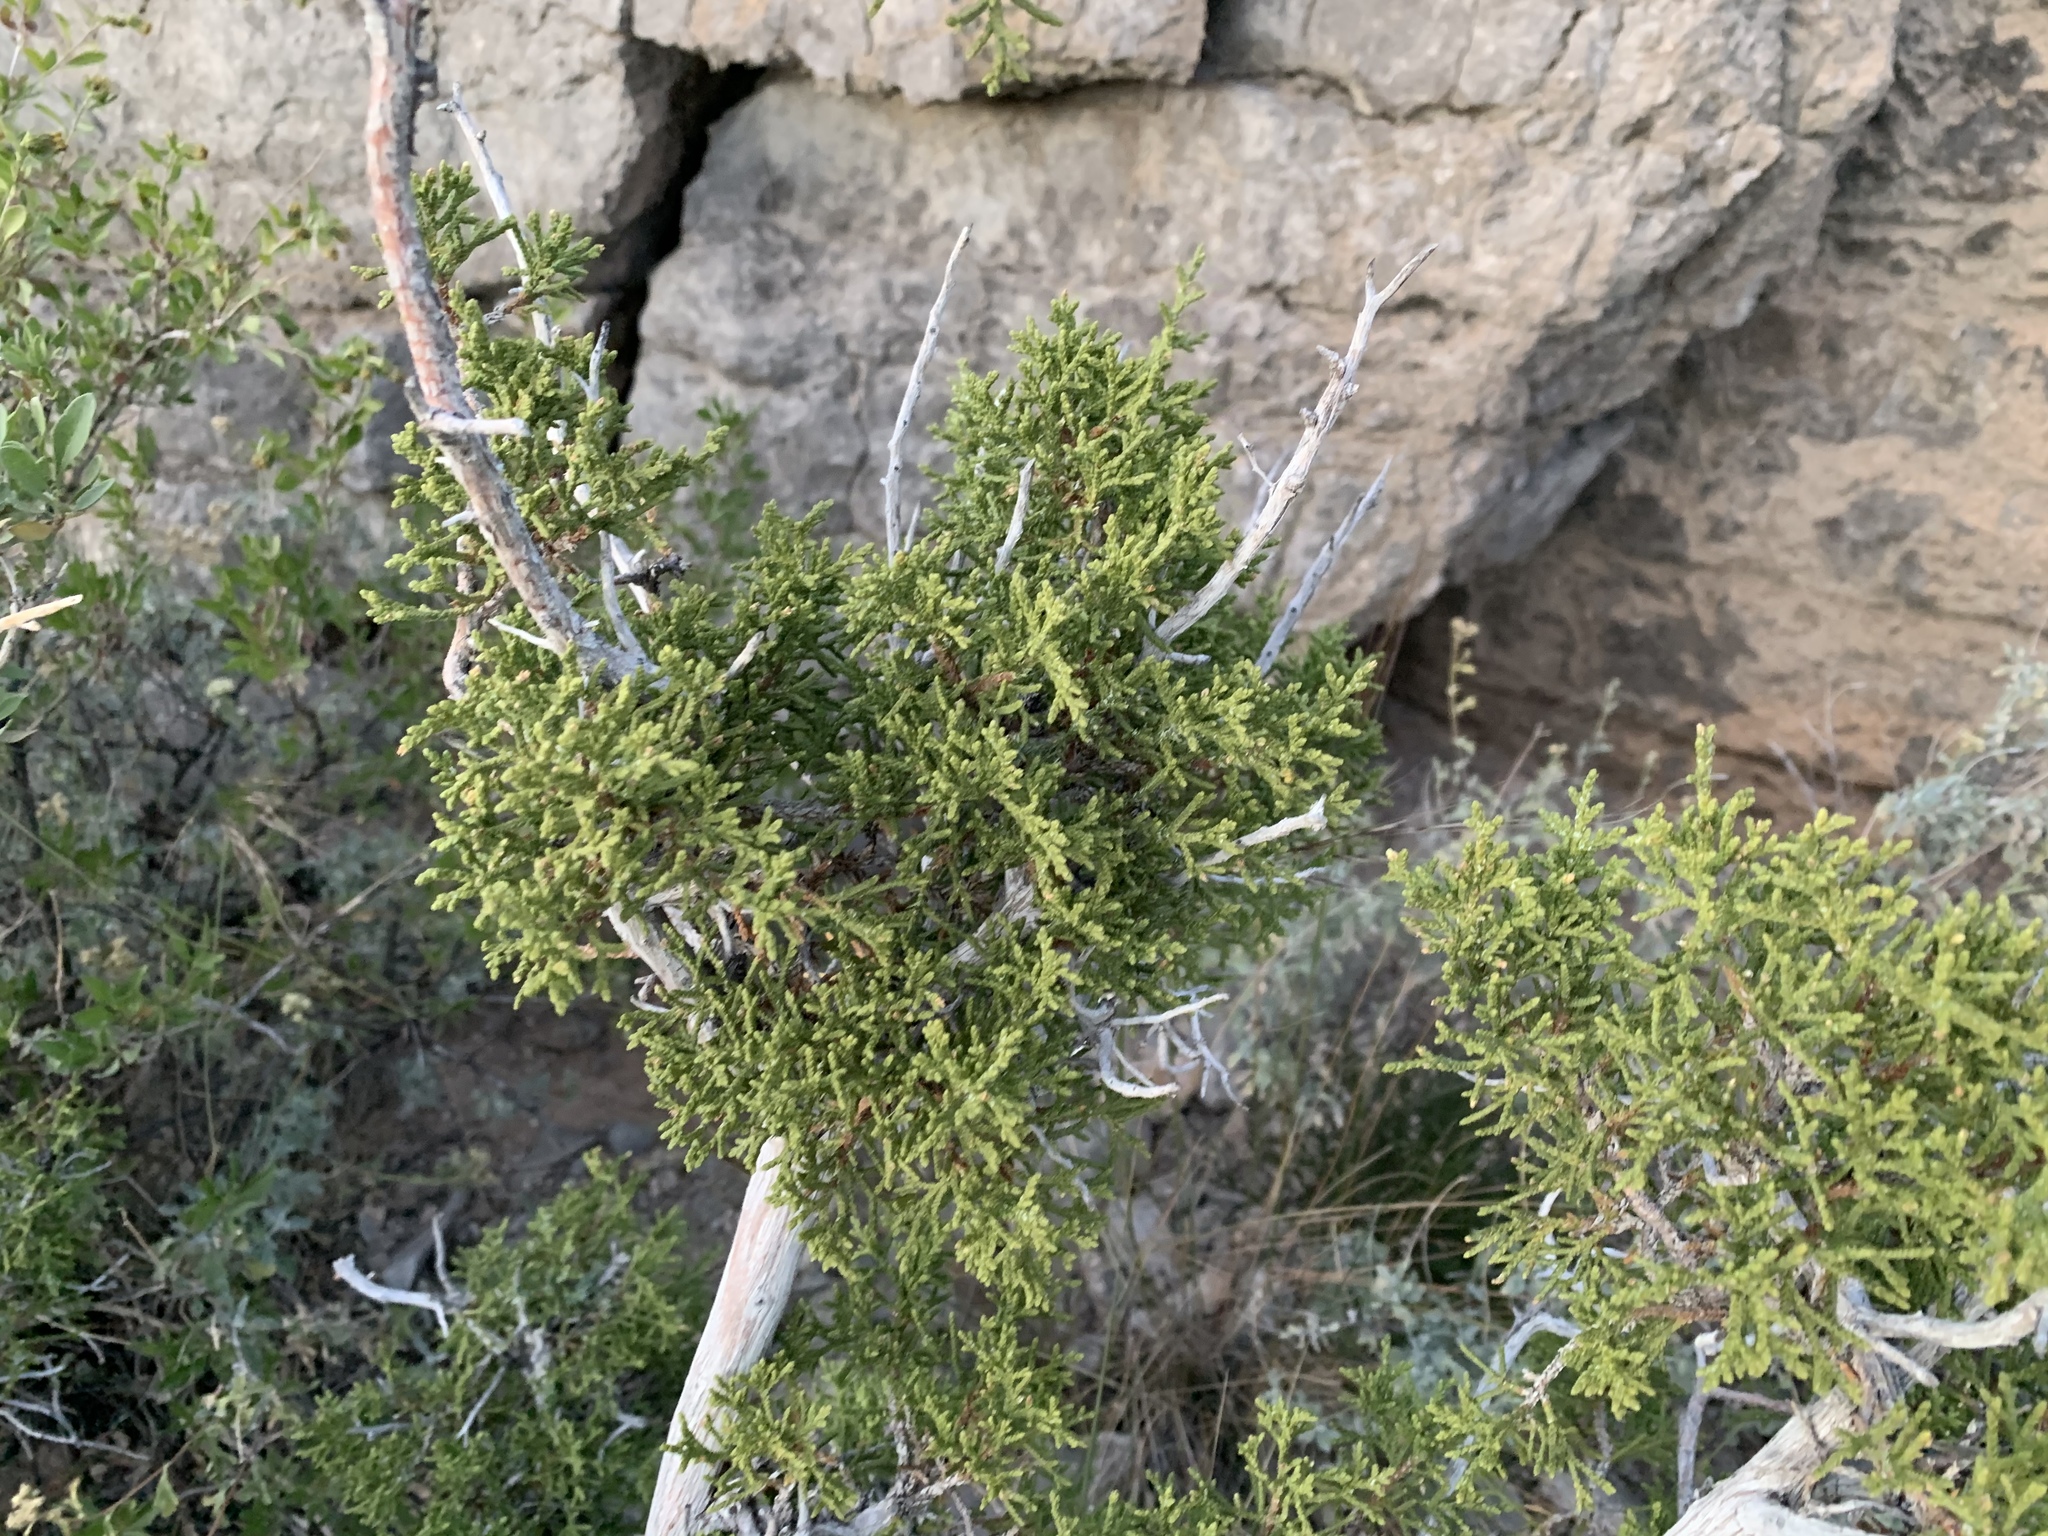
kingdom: Plantae
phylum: Tracheophyta
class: Pinopsida
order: Pinales
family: Cupressaceae
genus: Juniperus
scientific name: Juniperus monosperma
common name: One-seed juniper
